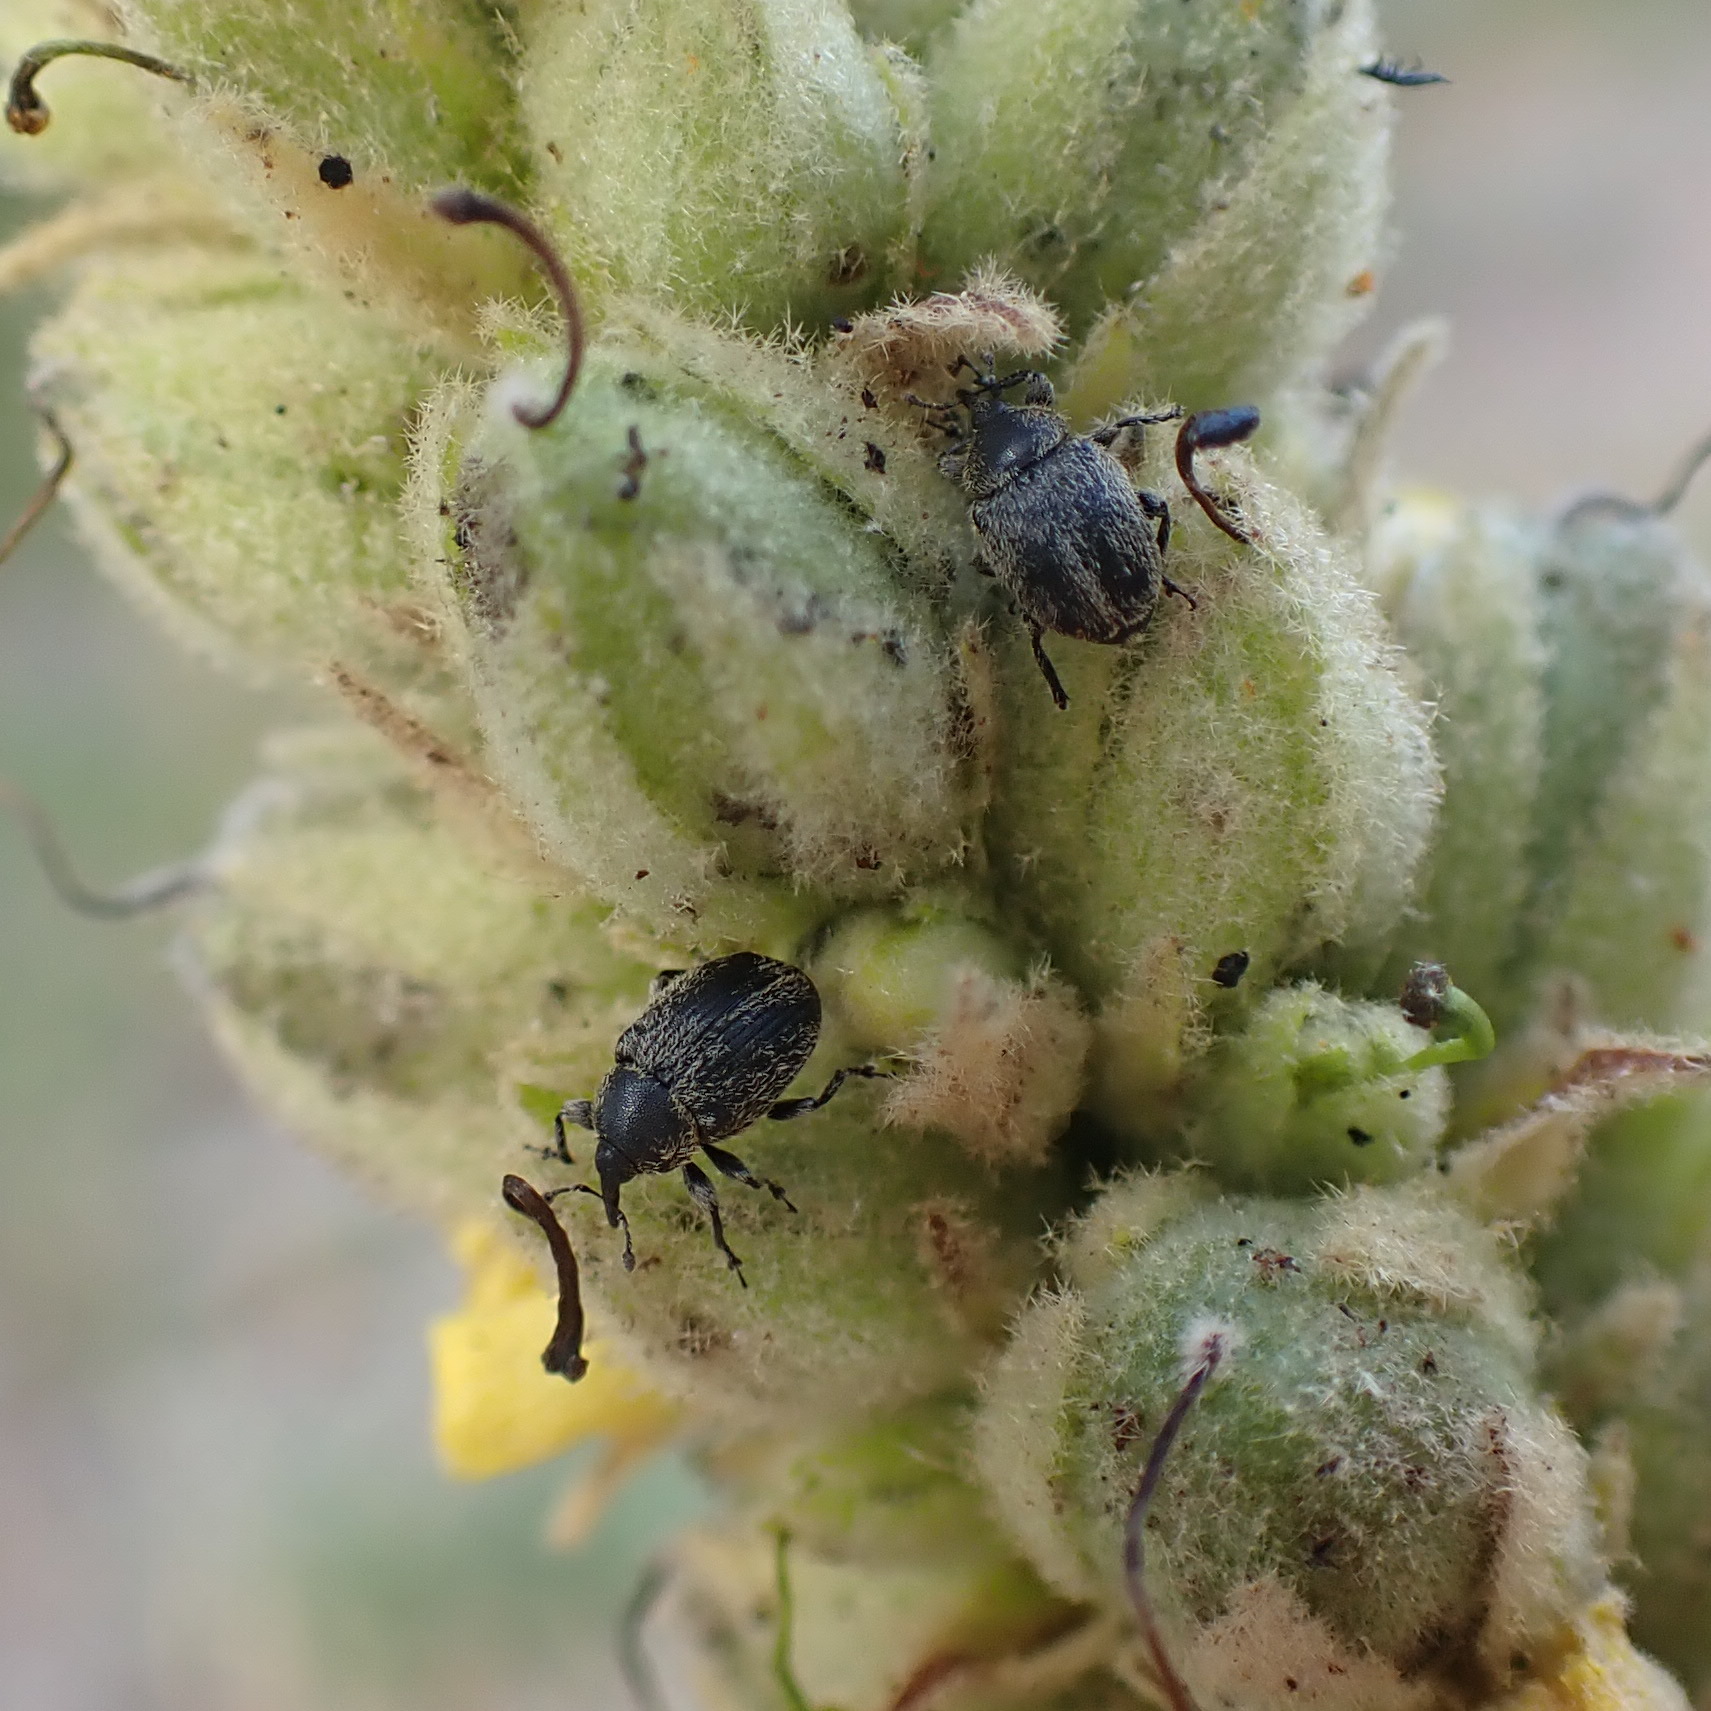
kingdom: Animalia
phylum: Arthropoda
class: Insecta
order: Coleoptera
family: Curculionidae
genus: Rhinusa
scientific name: Rhinusa tetra
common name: Weevil
